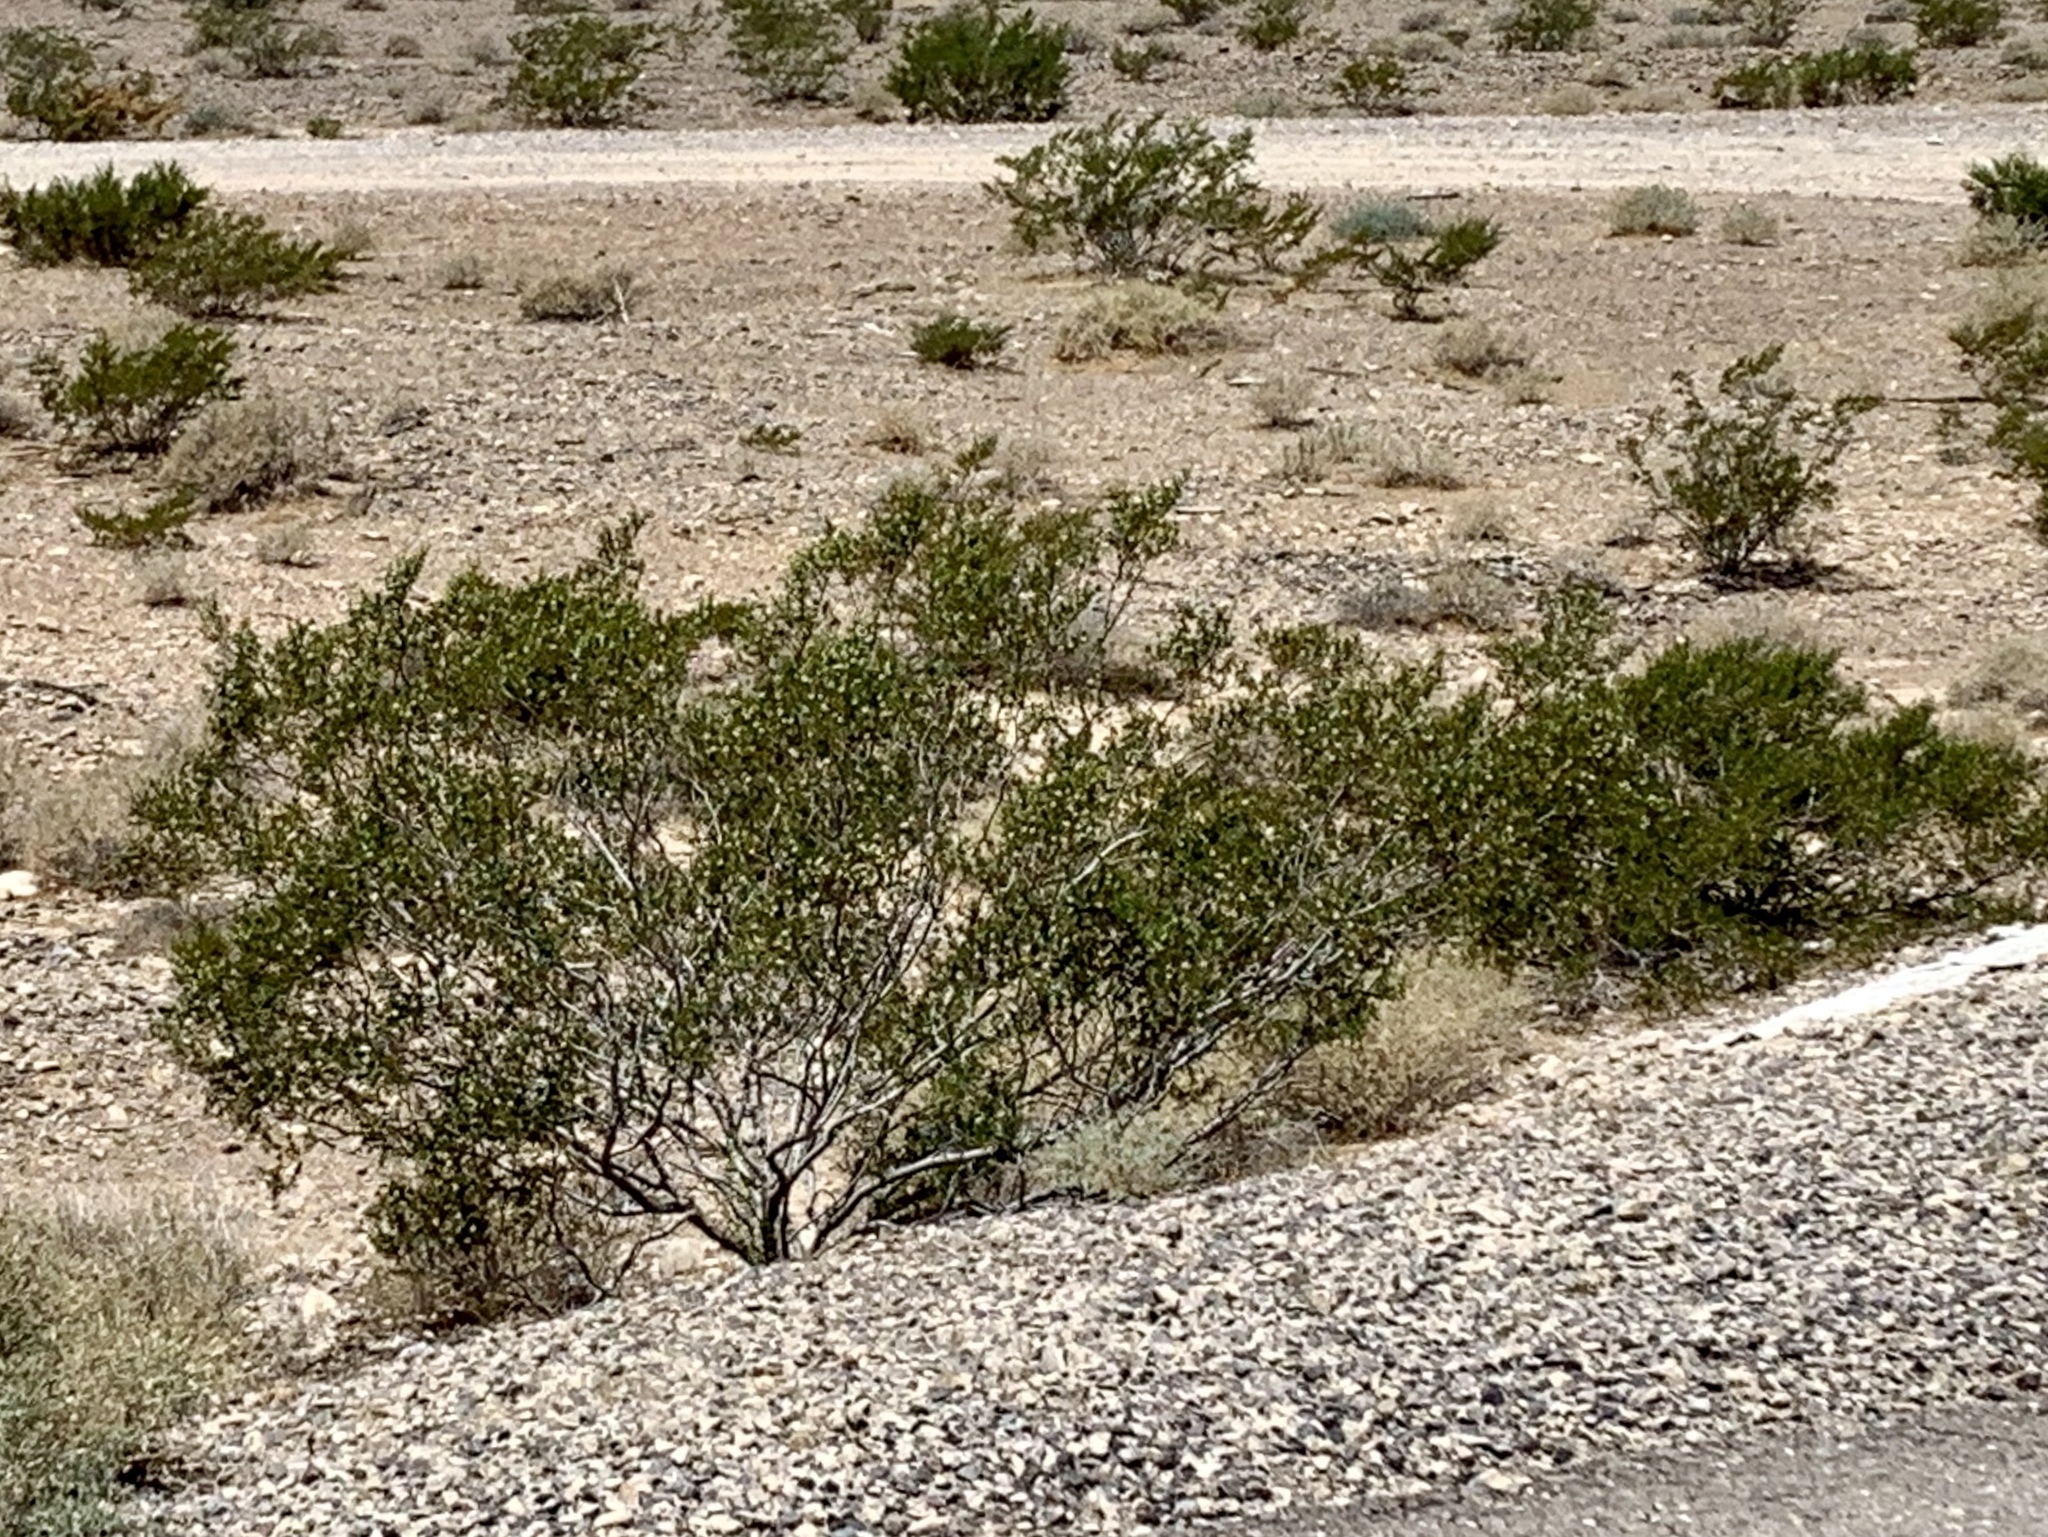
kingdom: Plantae
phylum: Tracheophyta
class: Magnoliopsida
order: Zygophyllales
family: Zygophyllaceae
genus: Larrea
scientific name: Larrea tridentata
